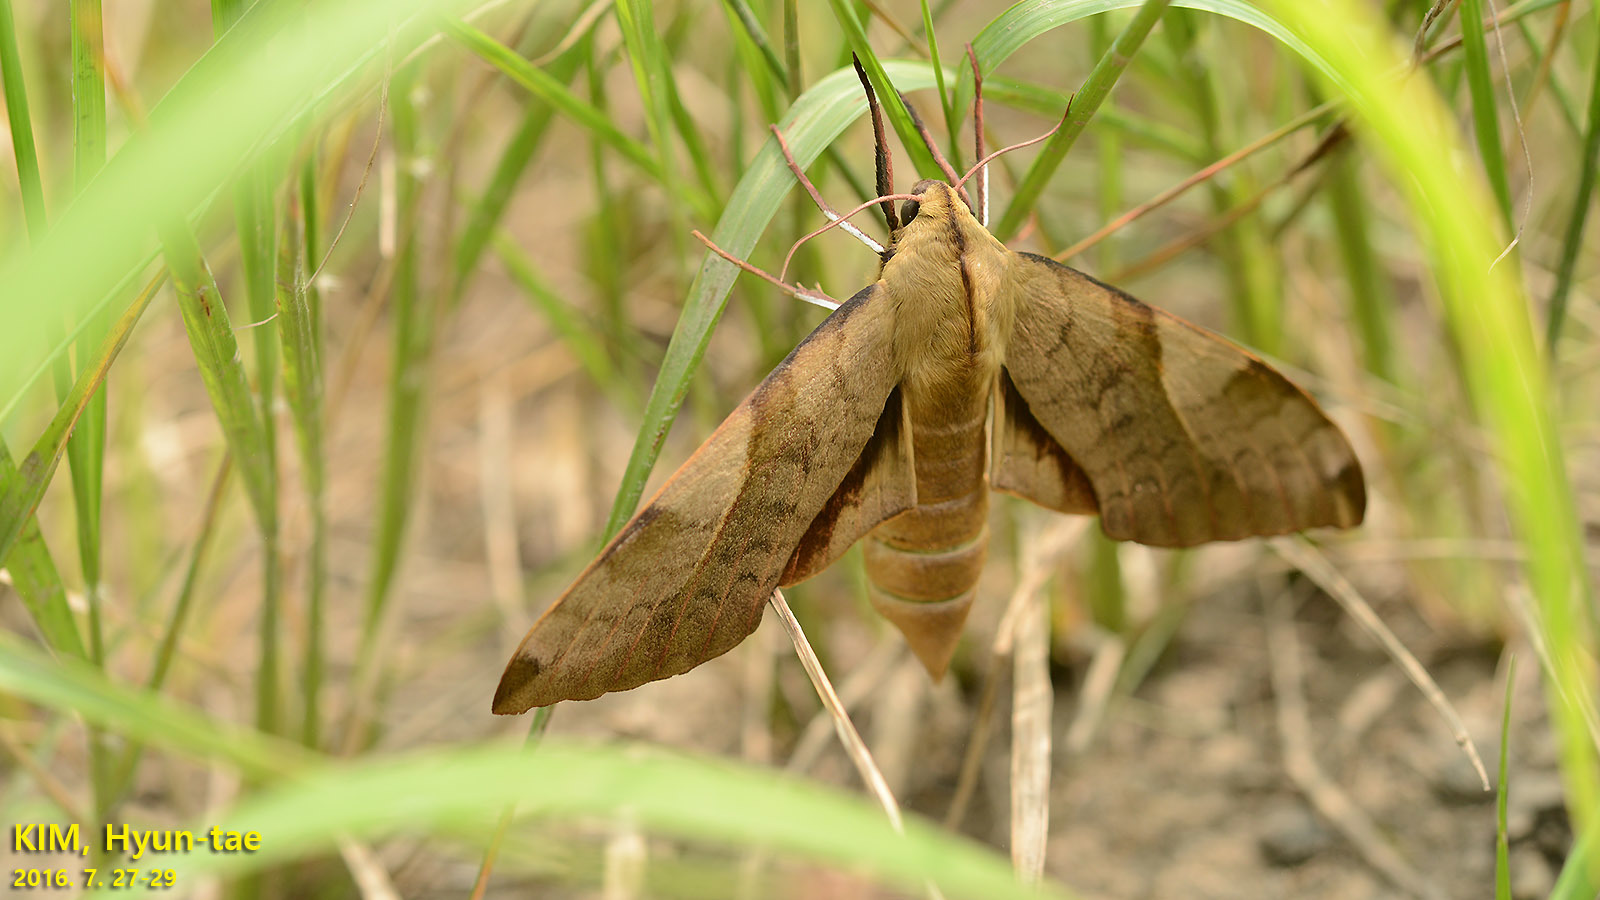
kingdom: Animalia
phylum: Arthropoda
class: Insecta
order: Lepidoptera
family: Sphingidae
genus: Clanis
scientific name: Clanis bilineata
